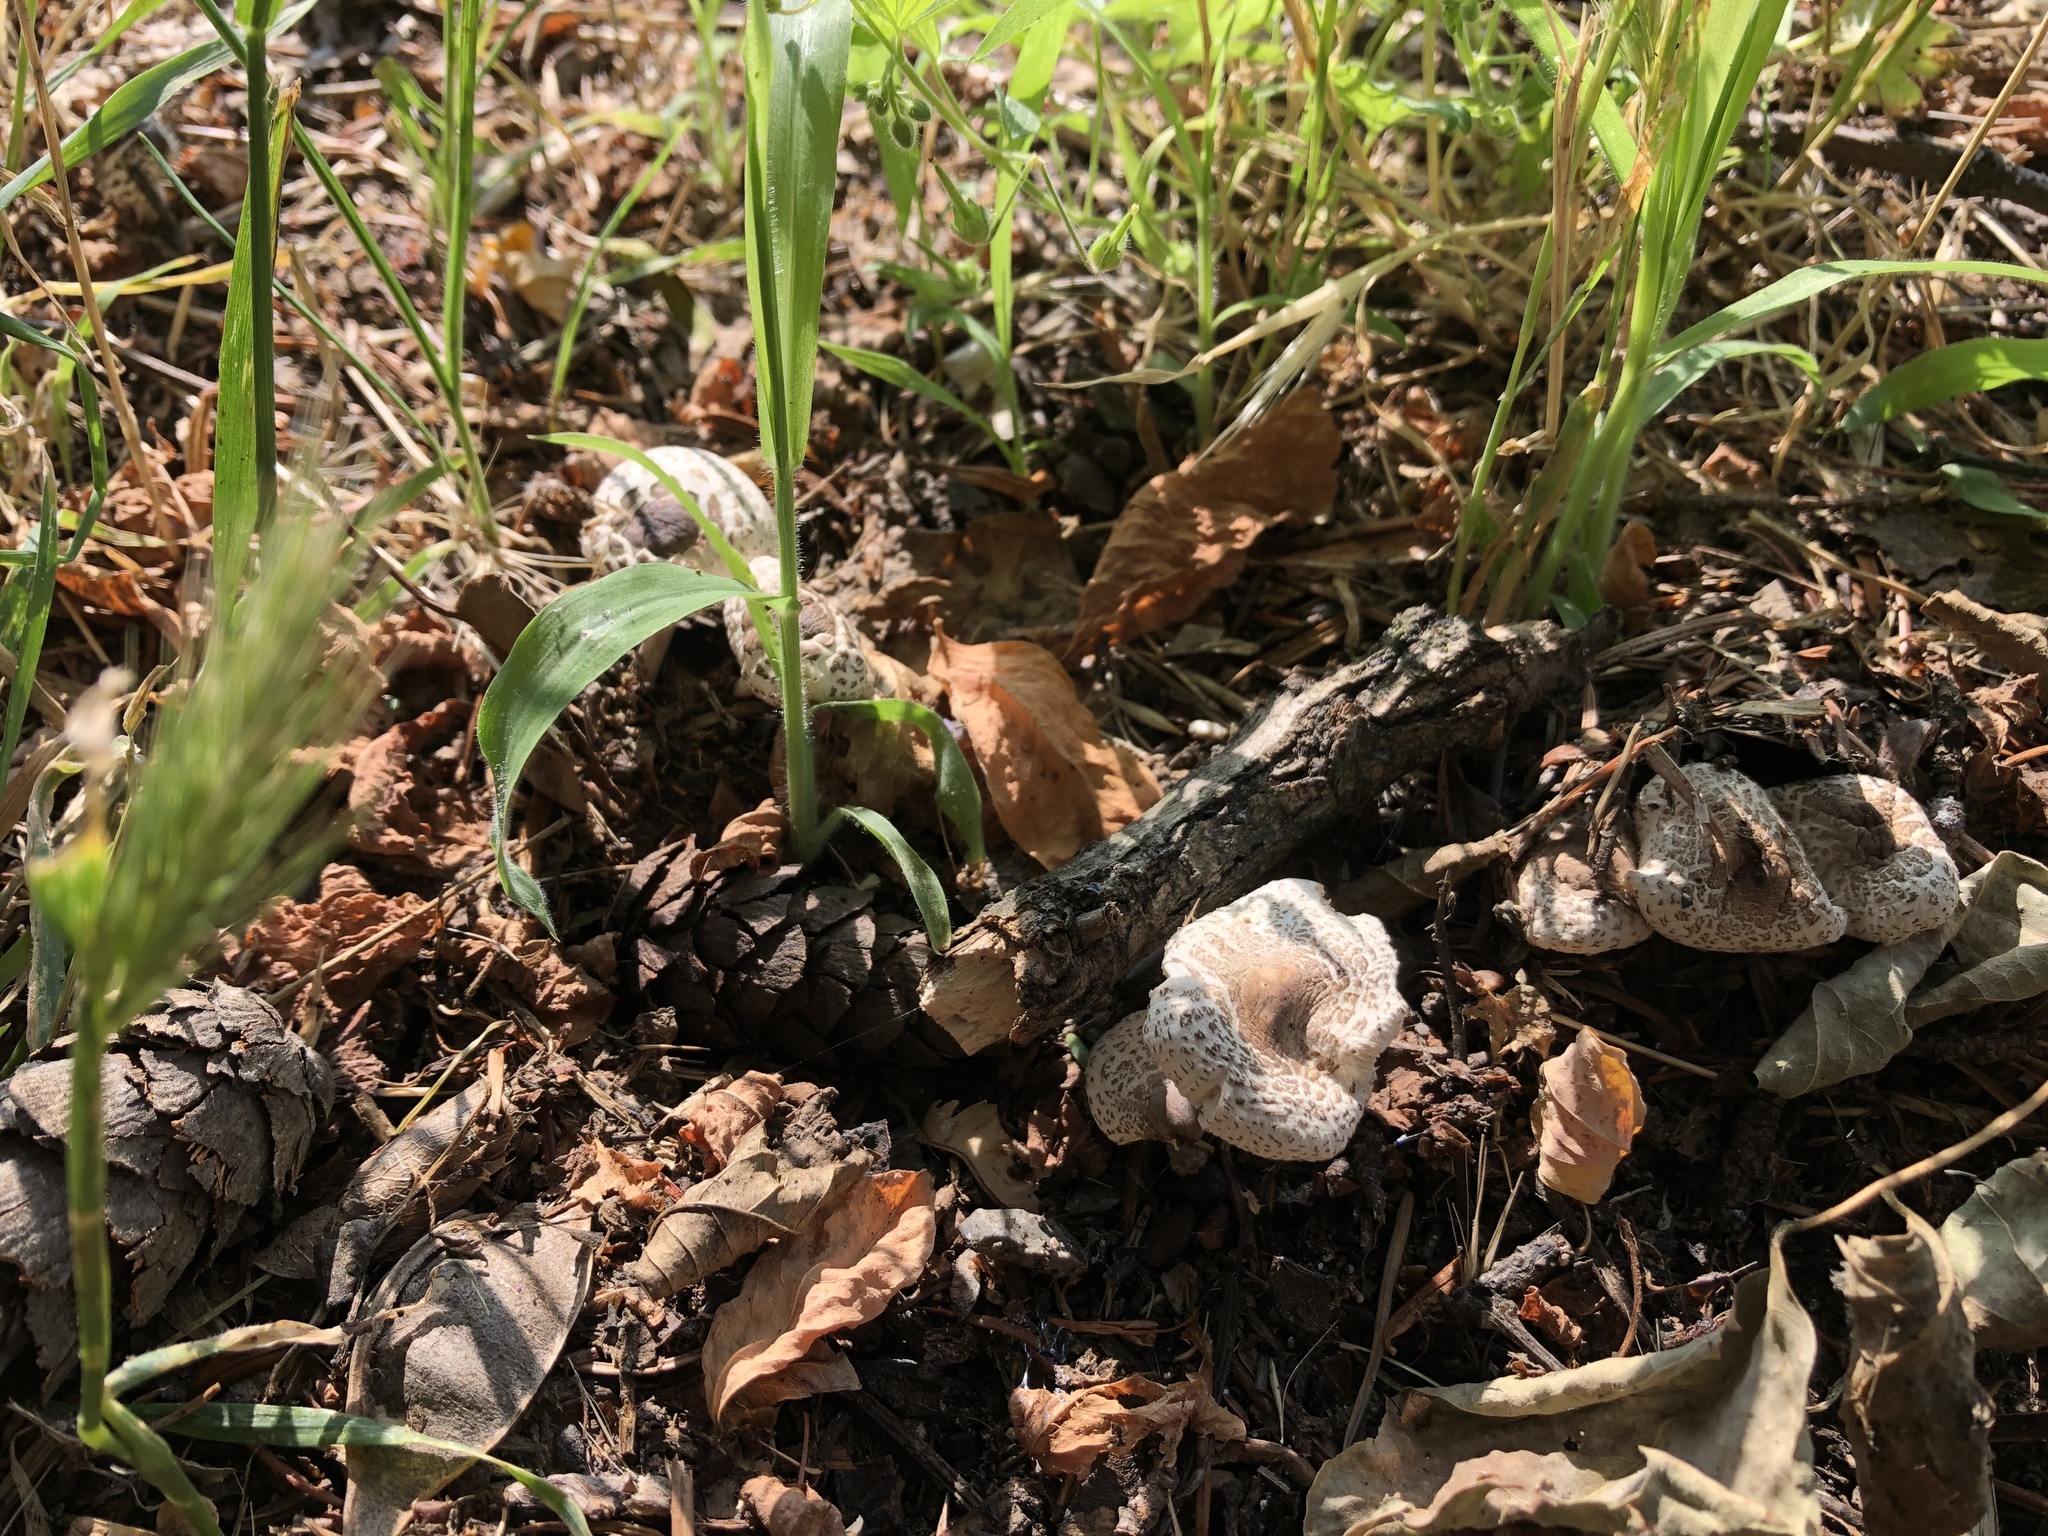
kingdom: Fungi
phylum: Basidiomycota
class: Agaricomycetes
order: Agaricales
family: Agaricaceae
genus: Lepiota
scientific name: Lepiota cristata
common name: Stinking dapperling
